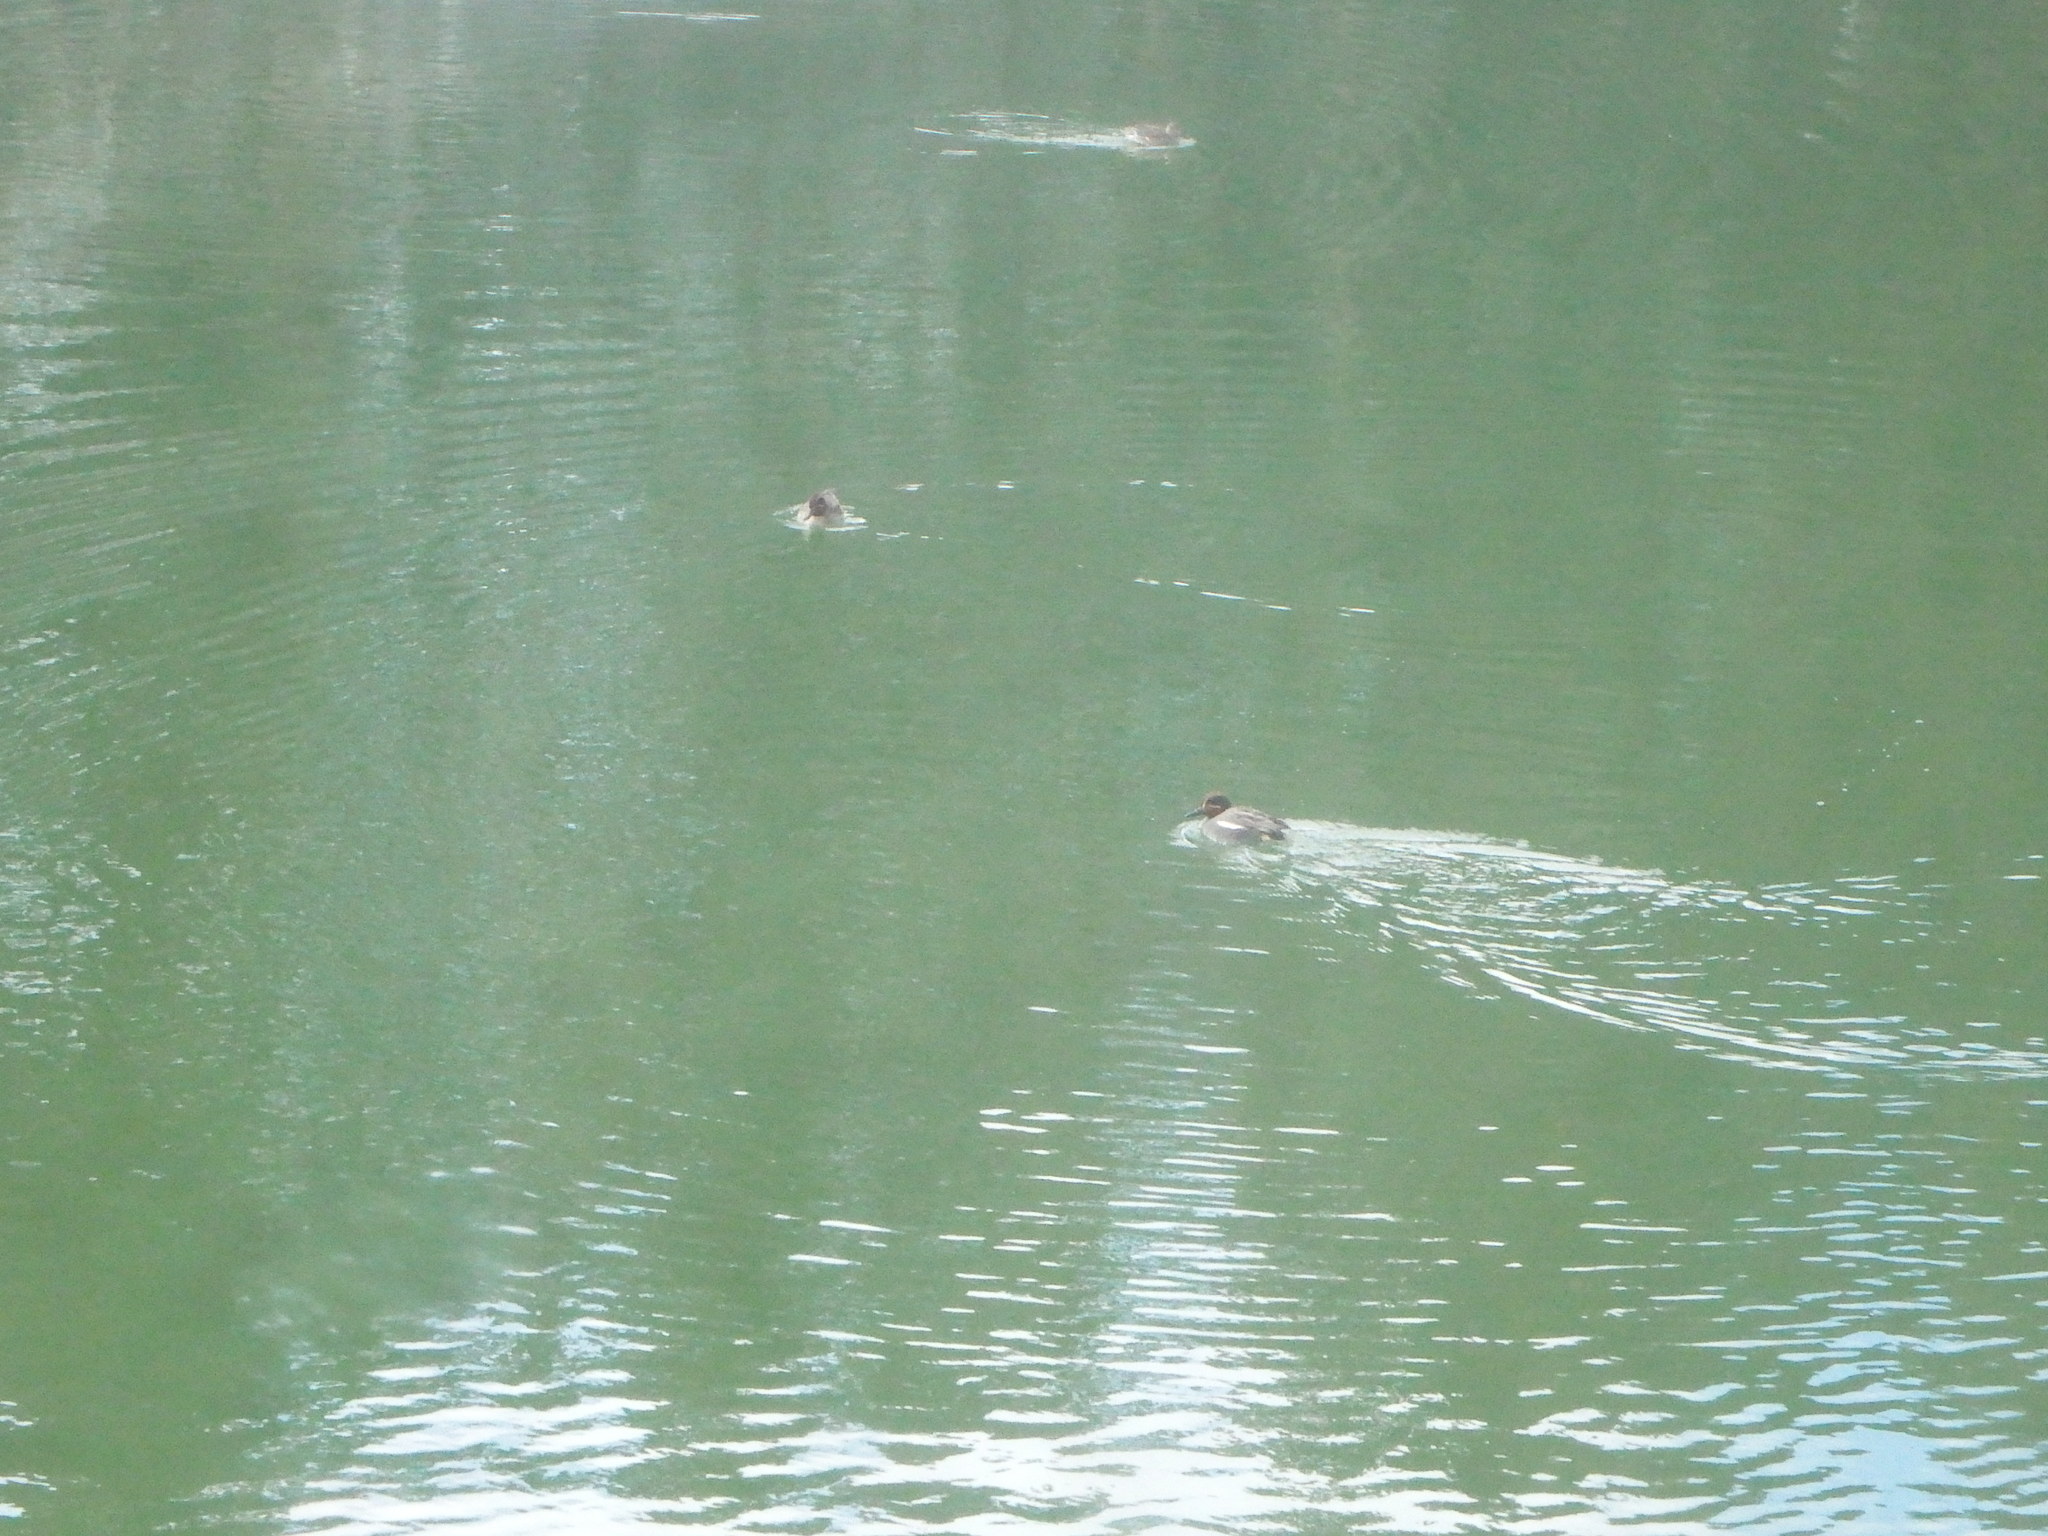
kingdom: Animalia
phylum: Chordata
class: Aves
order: Anseriformes
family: Anatidae
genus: Anas
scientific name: Anas crecca
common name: Eurasian teal
